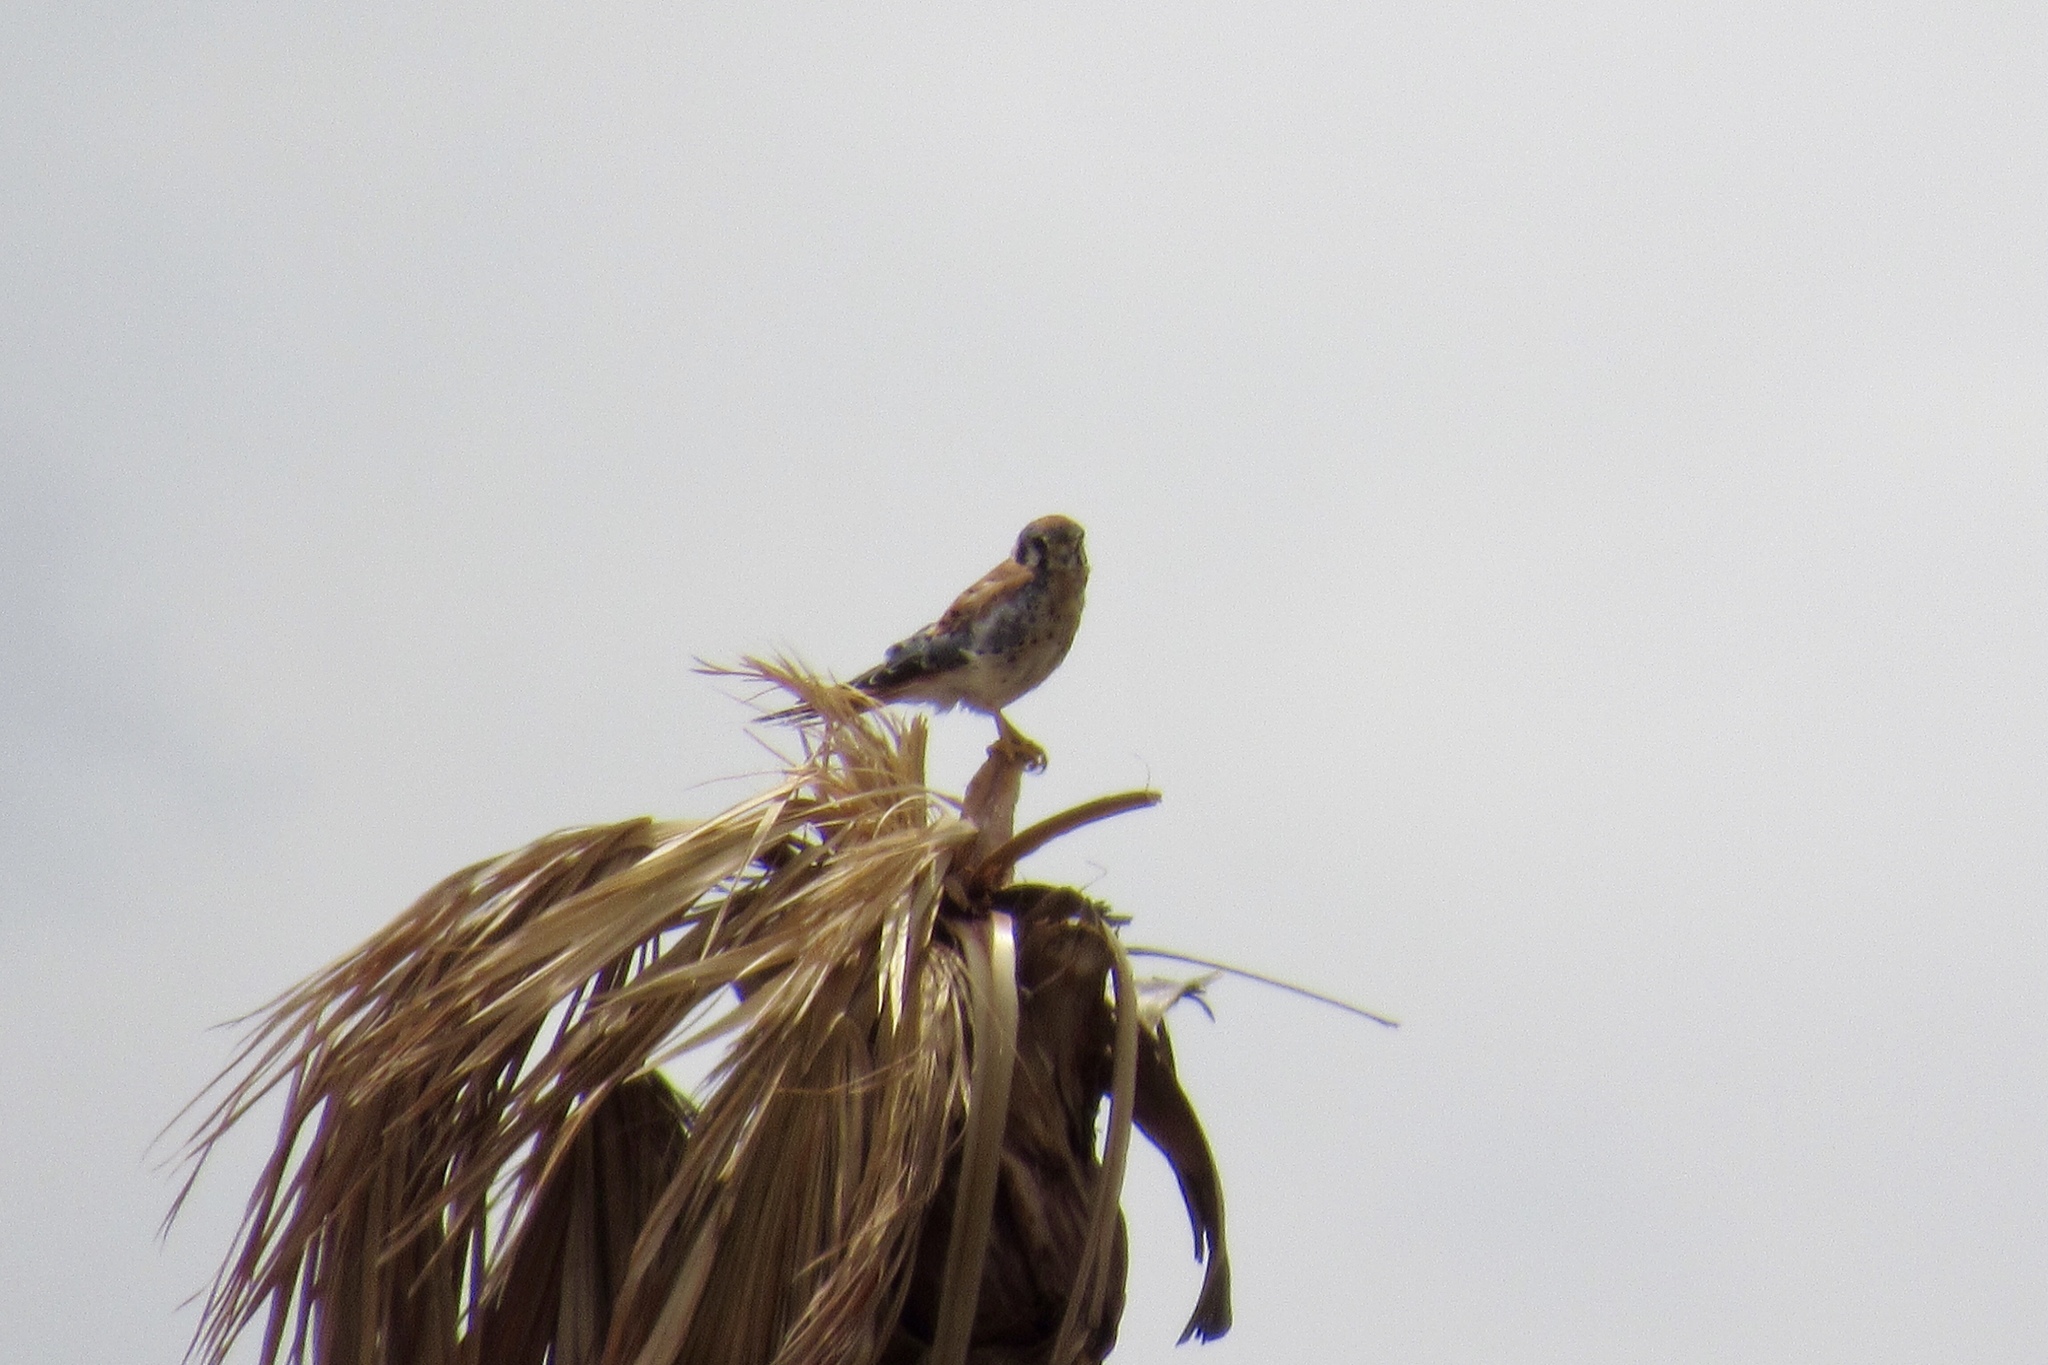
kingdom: Animalia
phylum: Chordata
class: Aves
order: Falconiformes
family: Falconidae
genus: Falco
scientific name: Falco sparverius
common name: American kestrel
